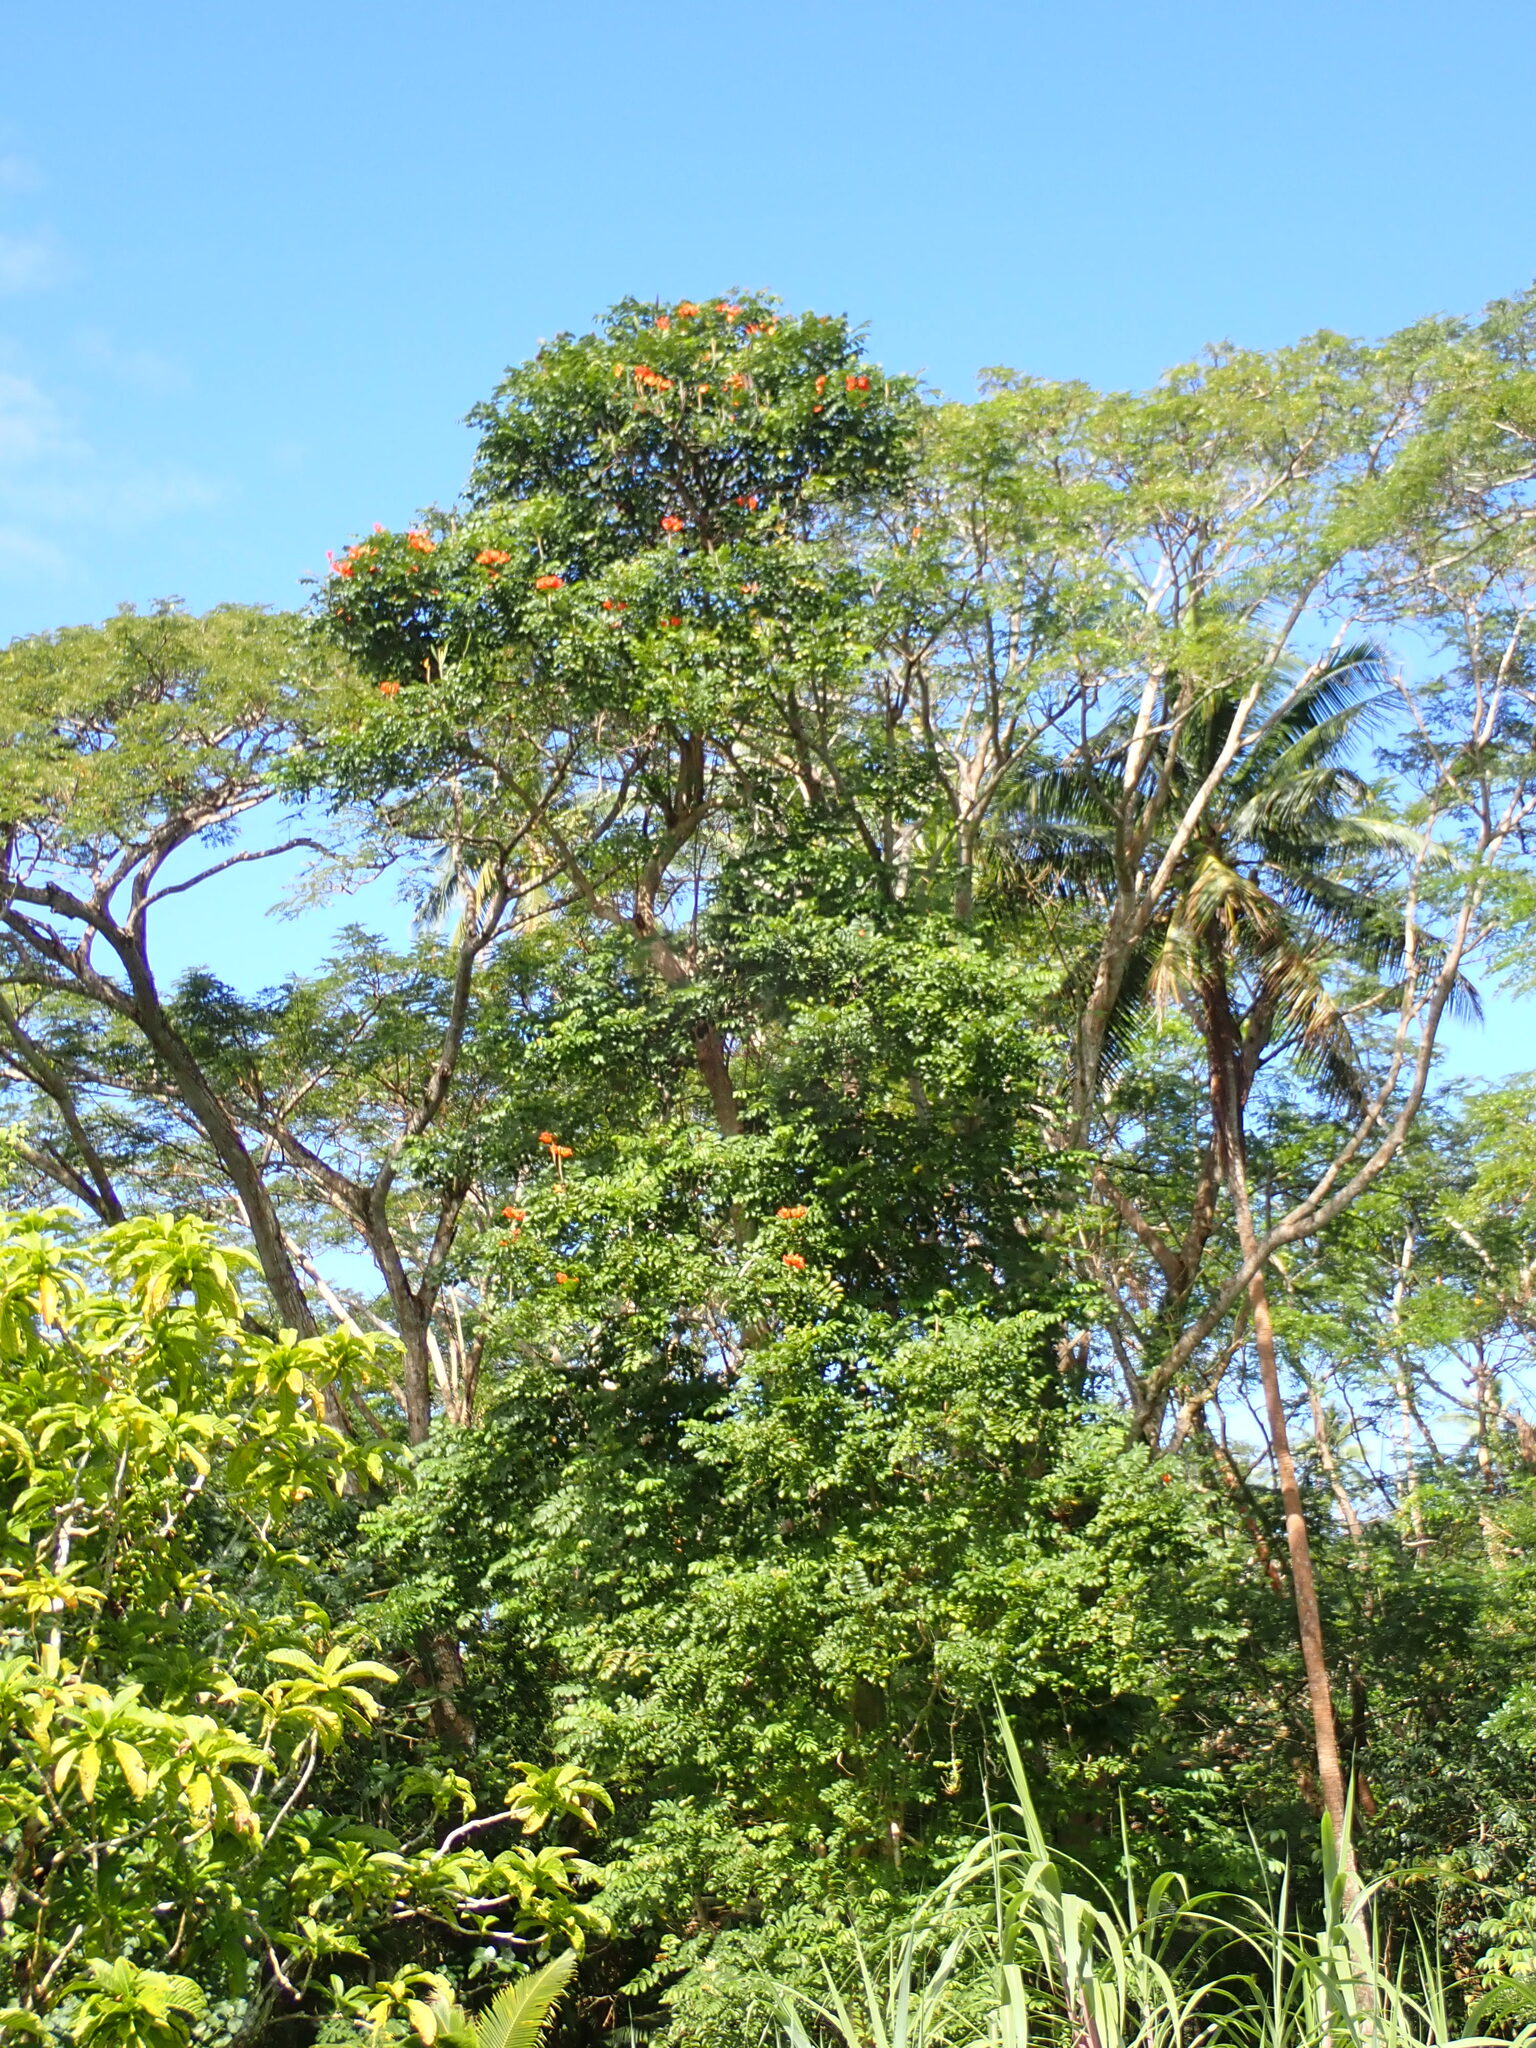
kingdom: Plantae
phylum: Tracheophyta
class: Magnoliopsida
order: Lamiales
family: Bignoniaceae
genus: Spathodea
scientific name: Spathodea campanulata
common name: African tuliptree
